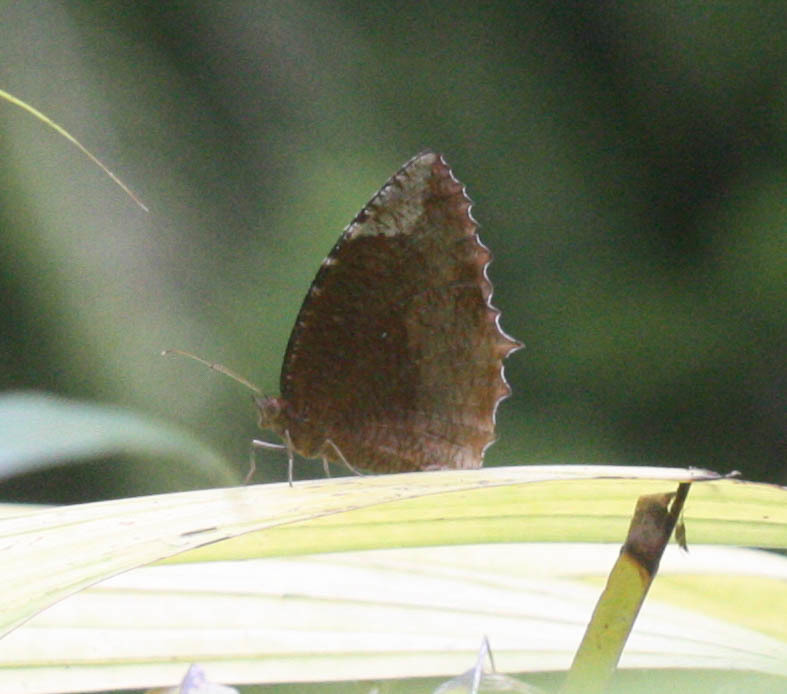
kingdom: Animalia
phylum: Arthropoda
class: Insecta
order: Lepidoptera
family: Nymphalidae
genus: Elymnias
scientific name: Elymnias hypermnestra
